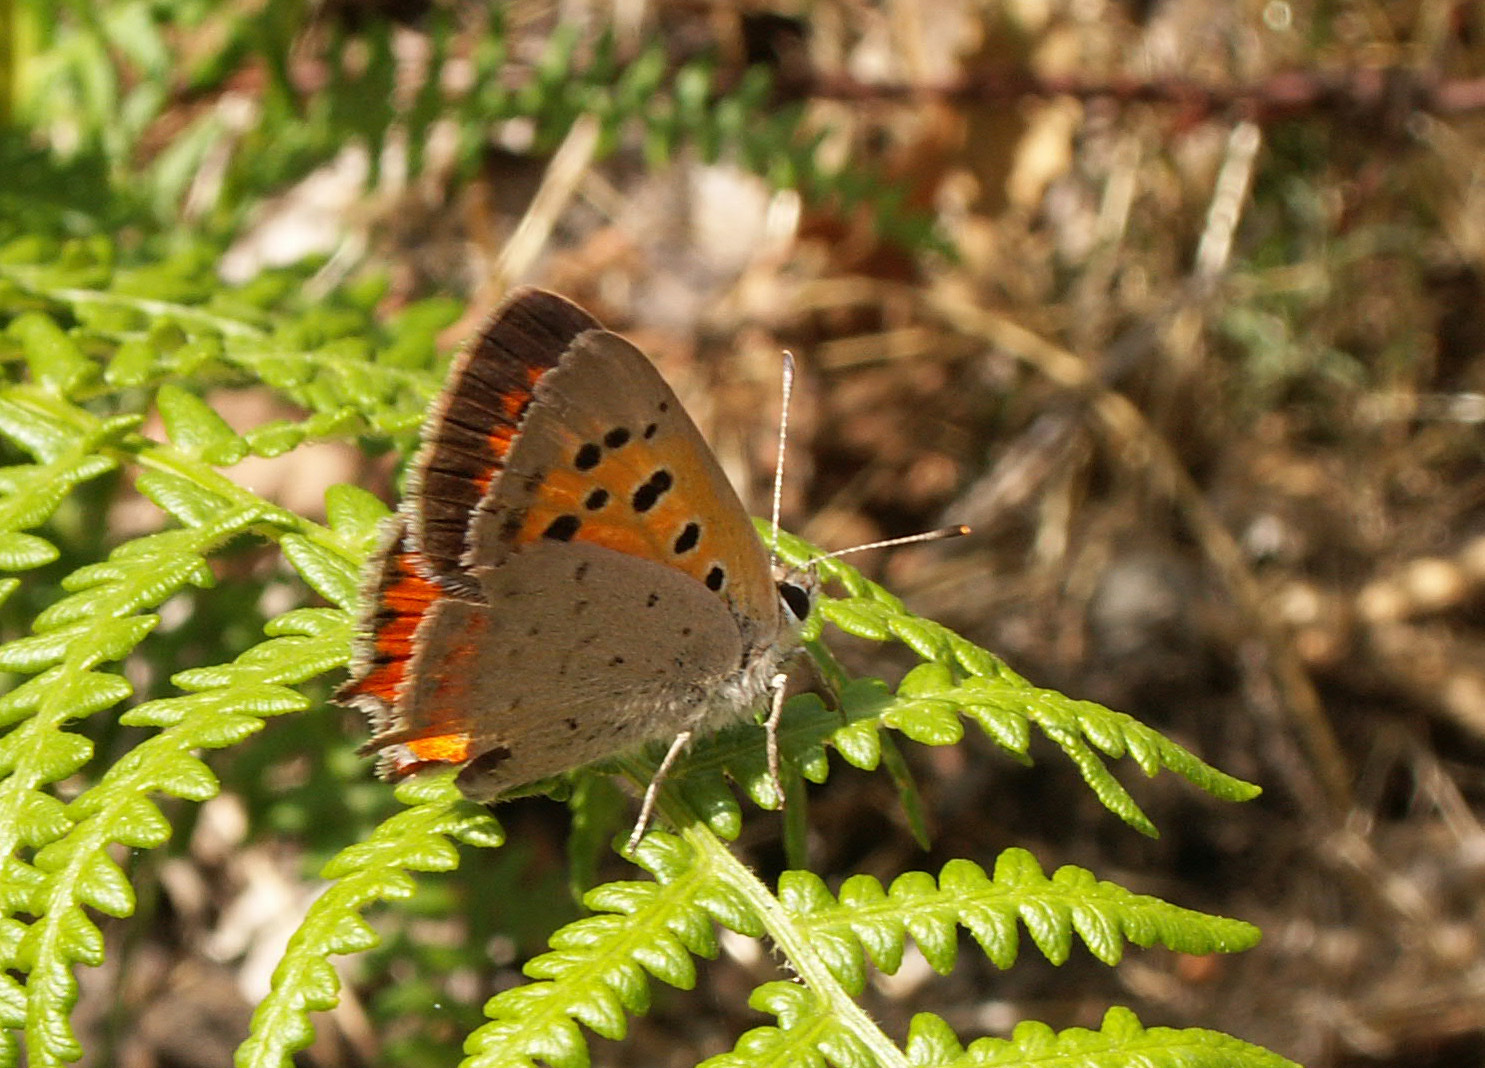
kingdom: Animalia
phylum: Arthropoda
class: Insecta
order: Lepidoptera
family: Lycaenidae
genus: Lycaena
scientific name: Lycaena phlaeas
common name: Small copper
